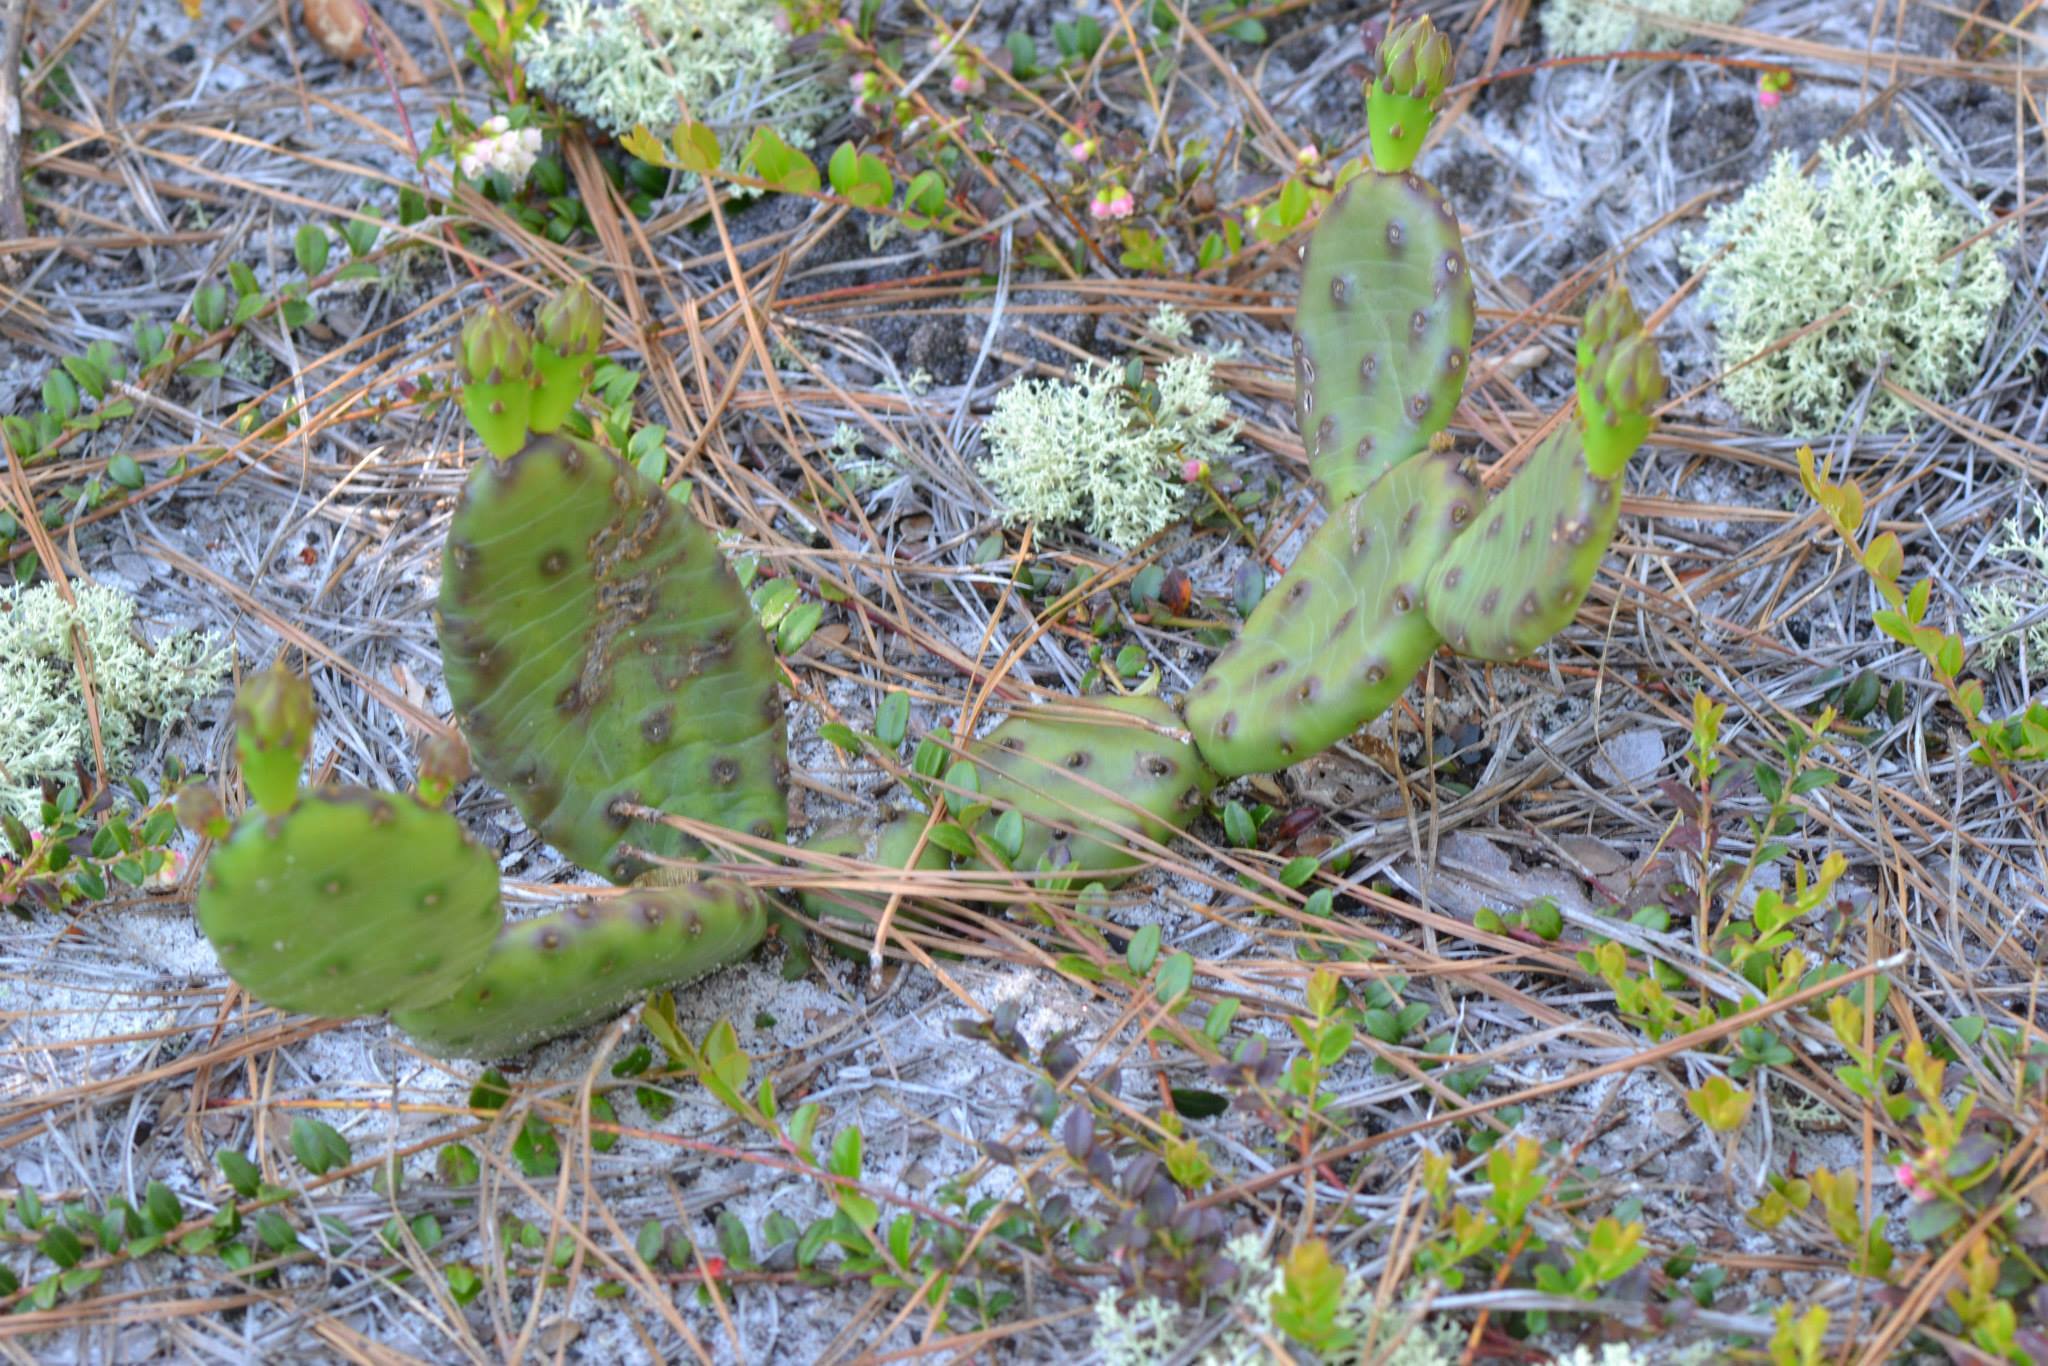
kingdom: Plantae
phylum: Tracheophyta
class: Magnoliopsida
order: Caryophyllales
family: Cactaceae
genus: Opuntia
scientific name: Opuntia humifusa
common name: Eastern prickly-pear
